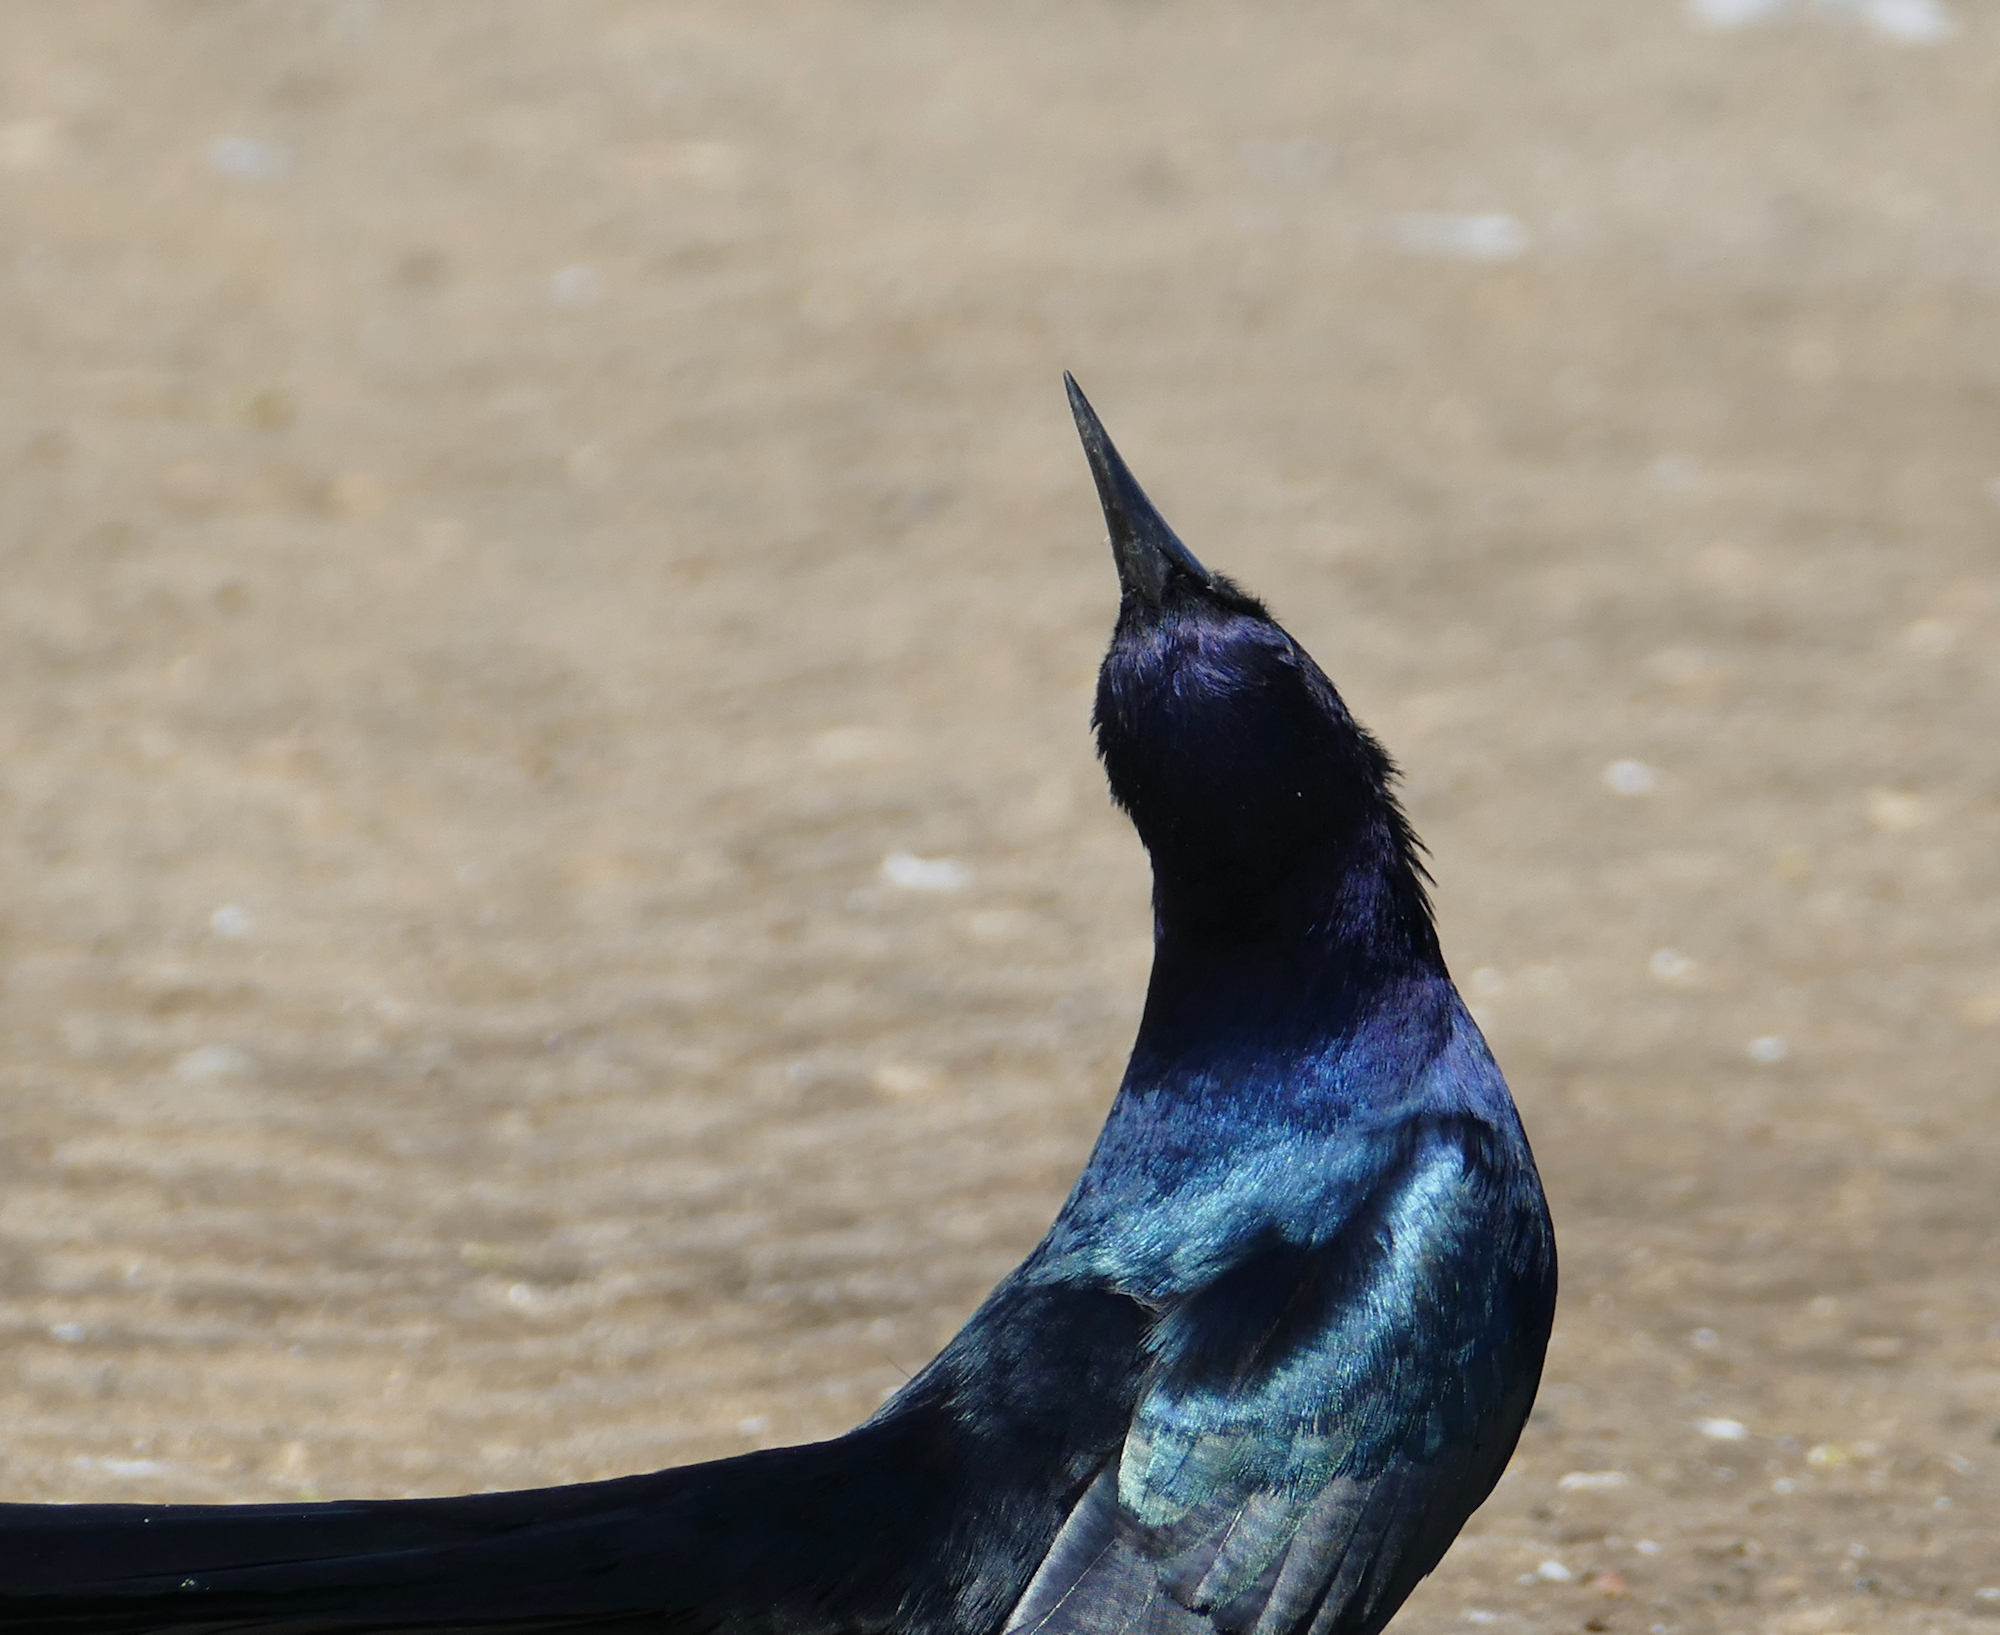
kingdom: Animalia
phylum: Chordata
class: Aves
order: Passeriformes
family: Icteridae
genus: Quiscalus
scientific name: Quiscalus major
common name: Boat-tailed grackle
